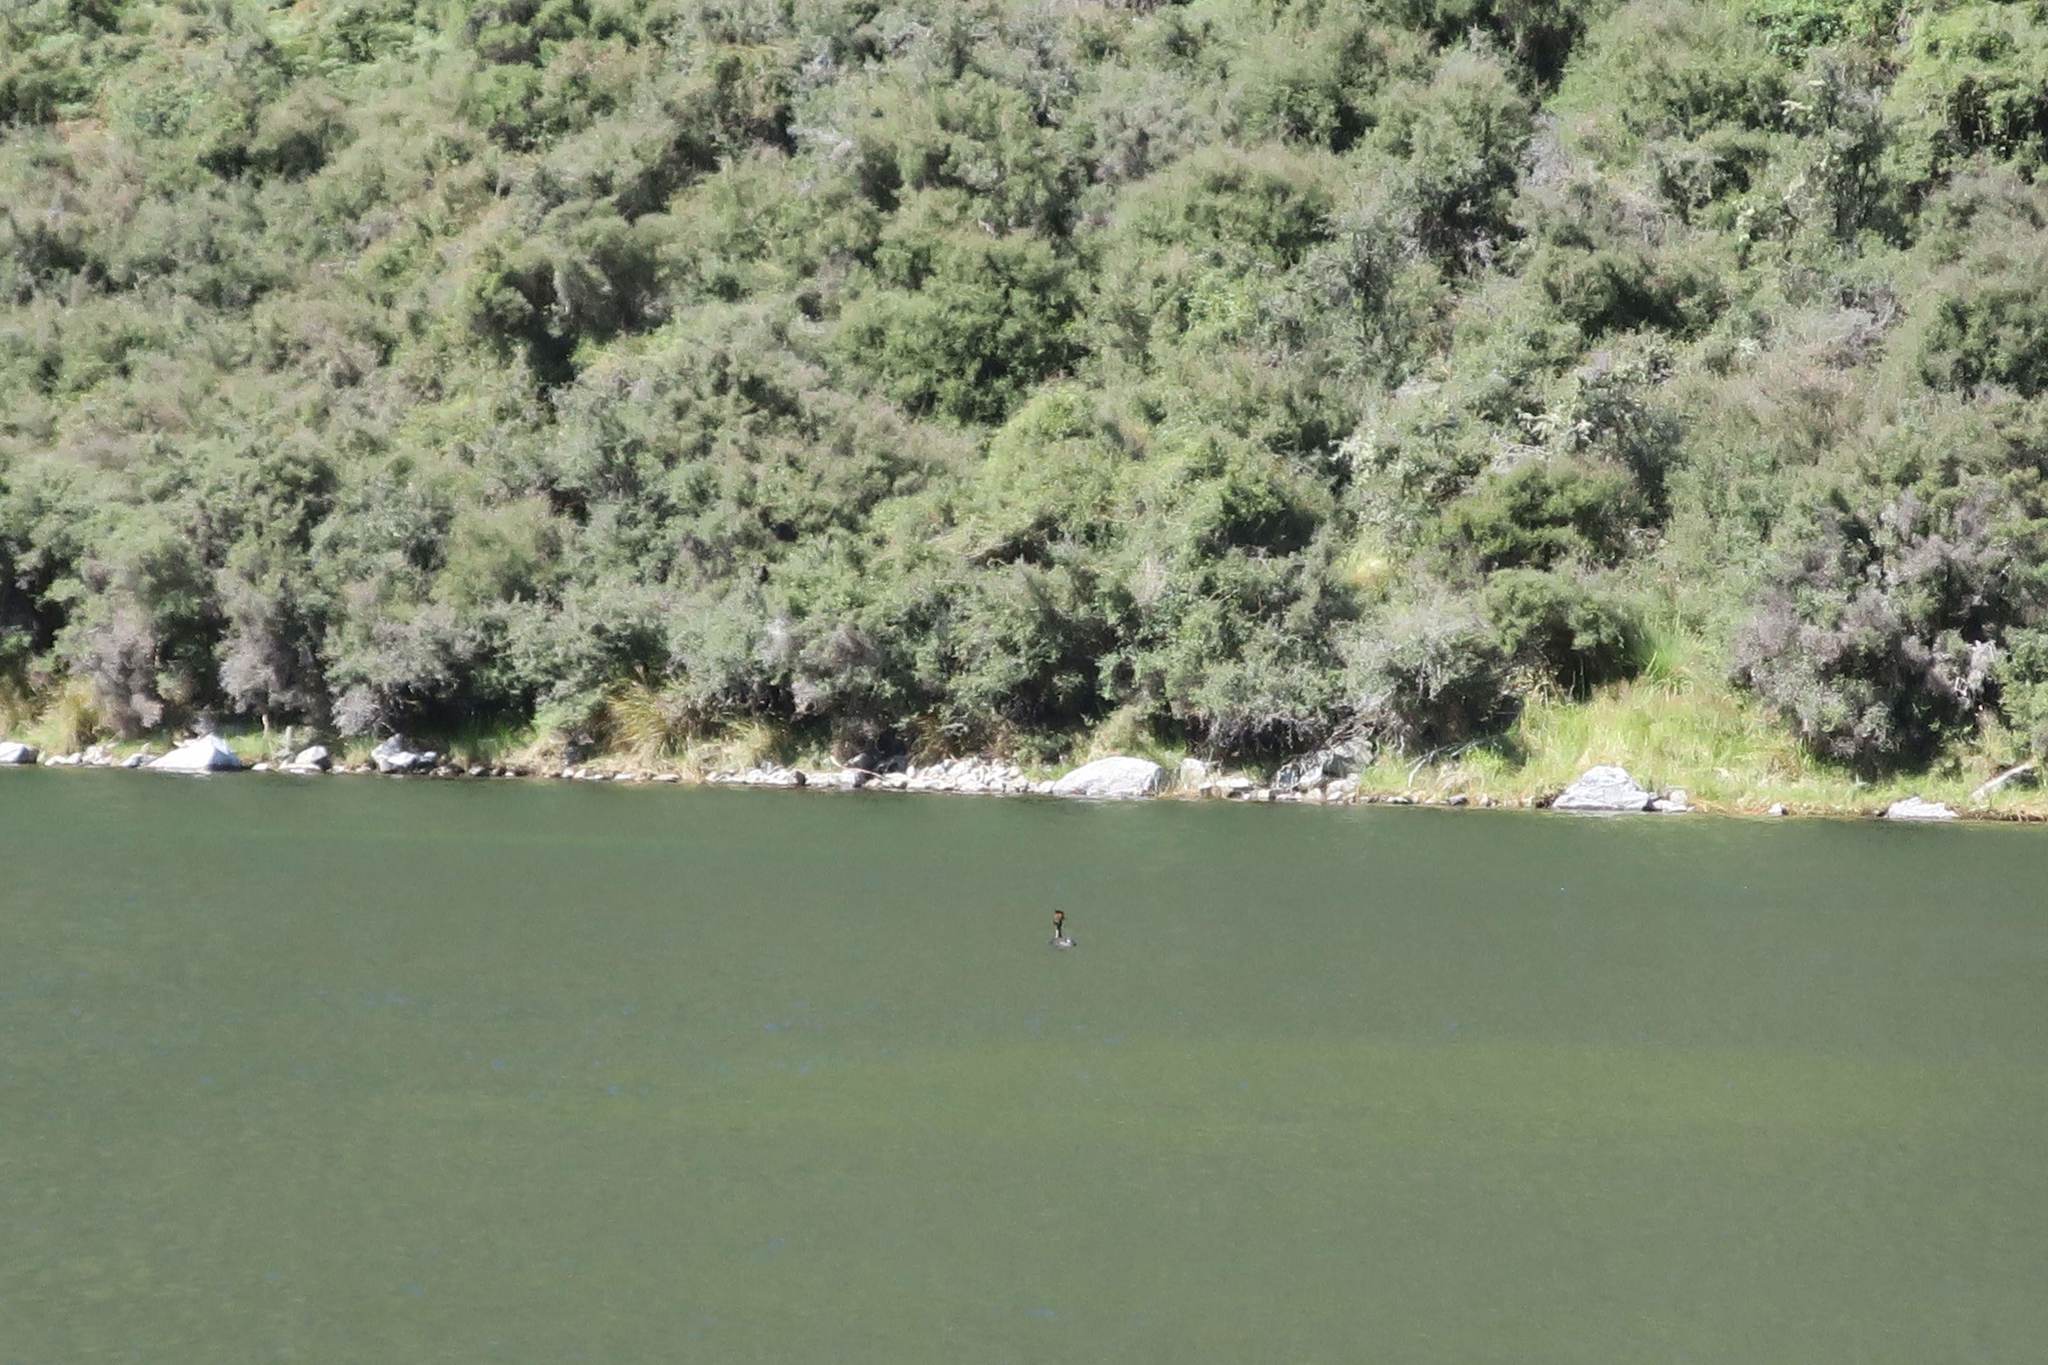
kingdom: Animalia
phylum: Chordata
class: Aves
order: Podicipediformes
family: Podicipedidae
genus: Podiceps
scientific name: Podiceps cristatus
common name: Great crested grebe
